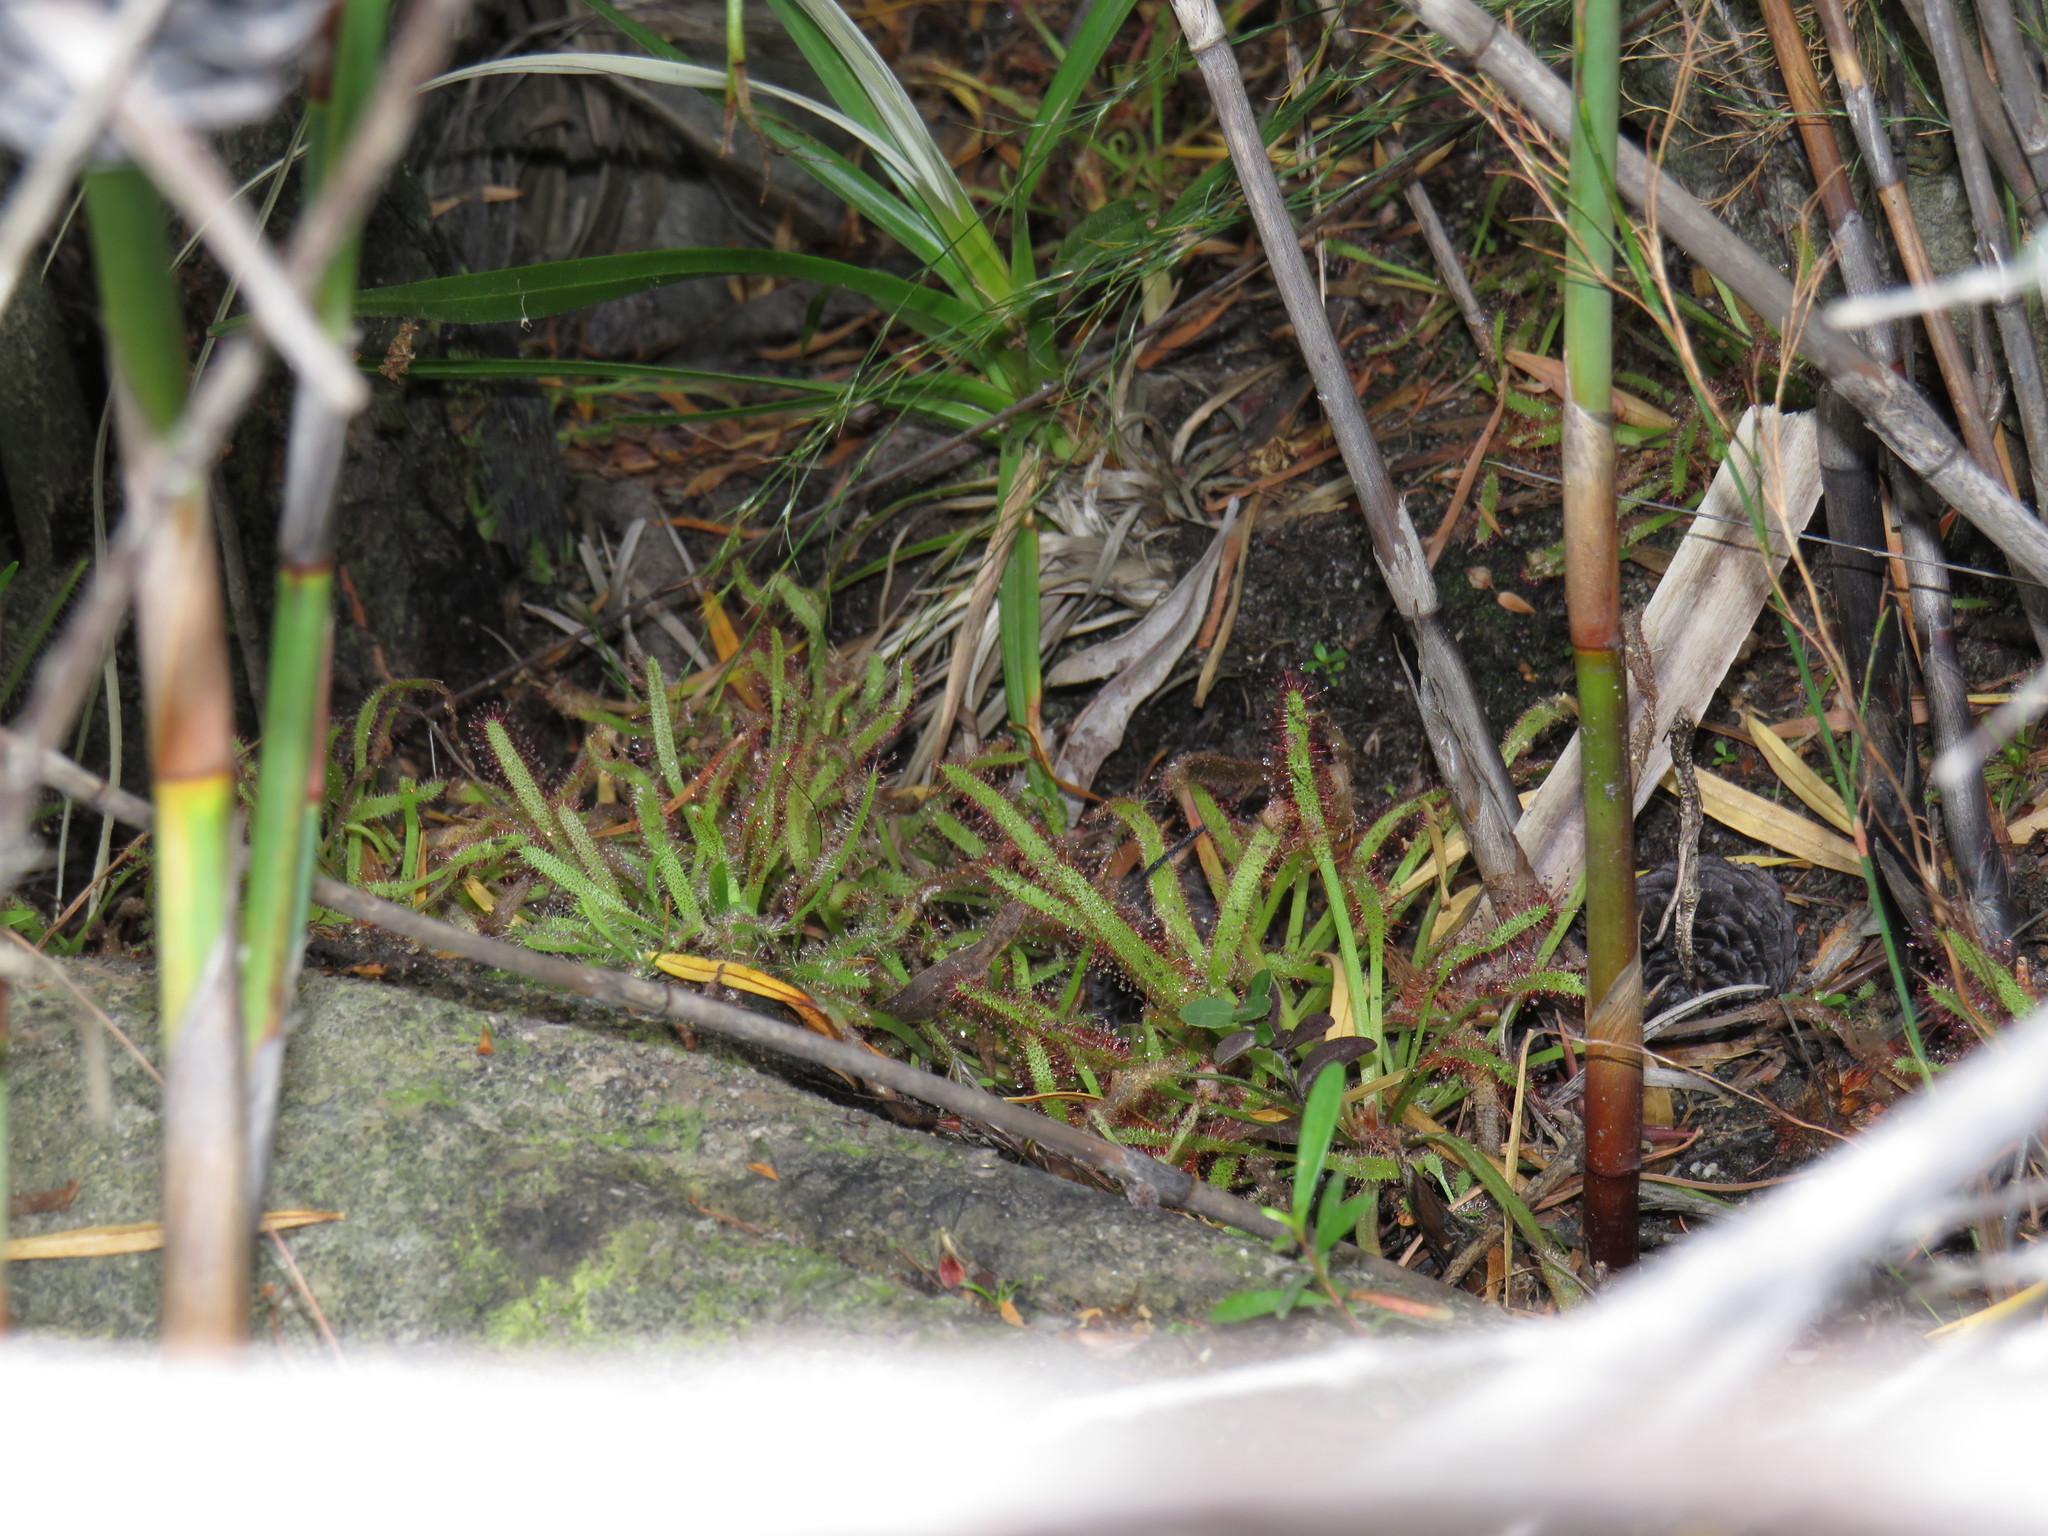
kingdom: Plantae
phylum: Tracheophyta
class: Magnoliopsida
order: Caryophyllales
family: Droseraceae
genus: Drosera
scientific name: Drosera capensis
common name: Cape sundew
